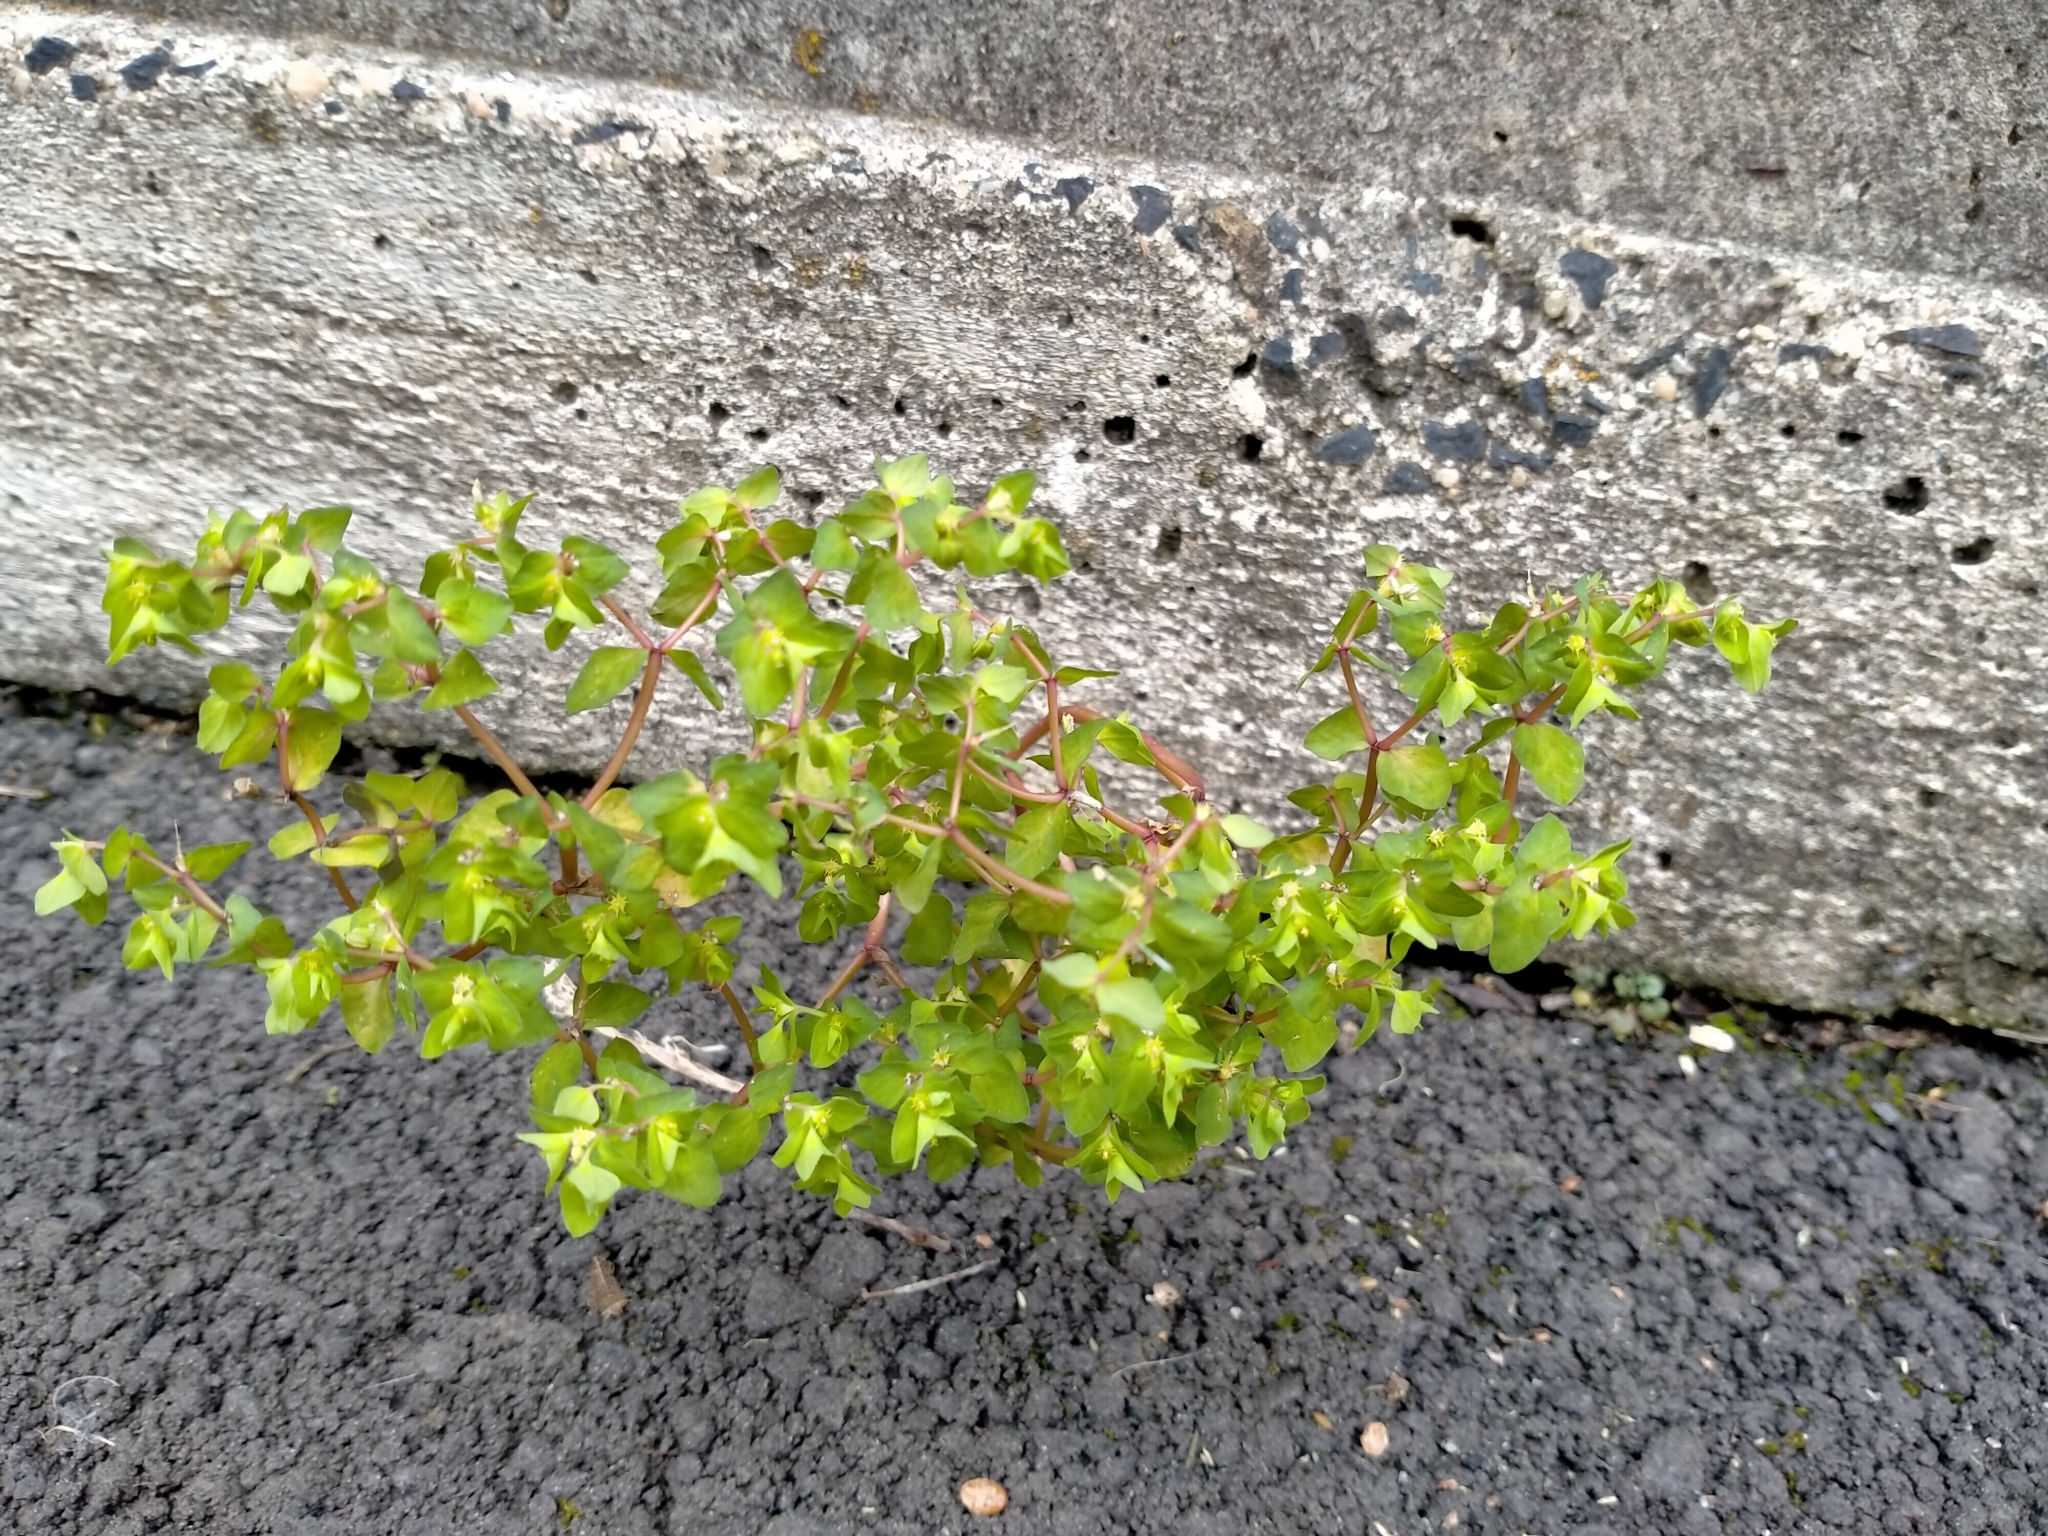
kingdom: Plantae
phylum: Tracheophyta
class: Magnoliopsida
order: Malpighiales
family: Euphorbiaceae
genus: Euphorbia
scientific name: Euphorbia peplus
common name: Petty spurge
